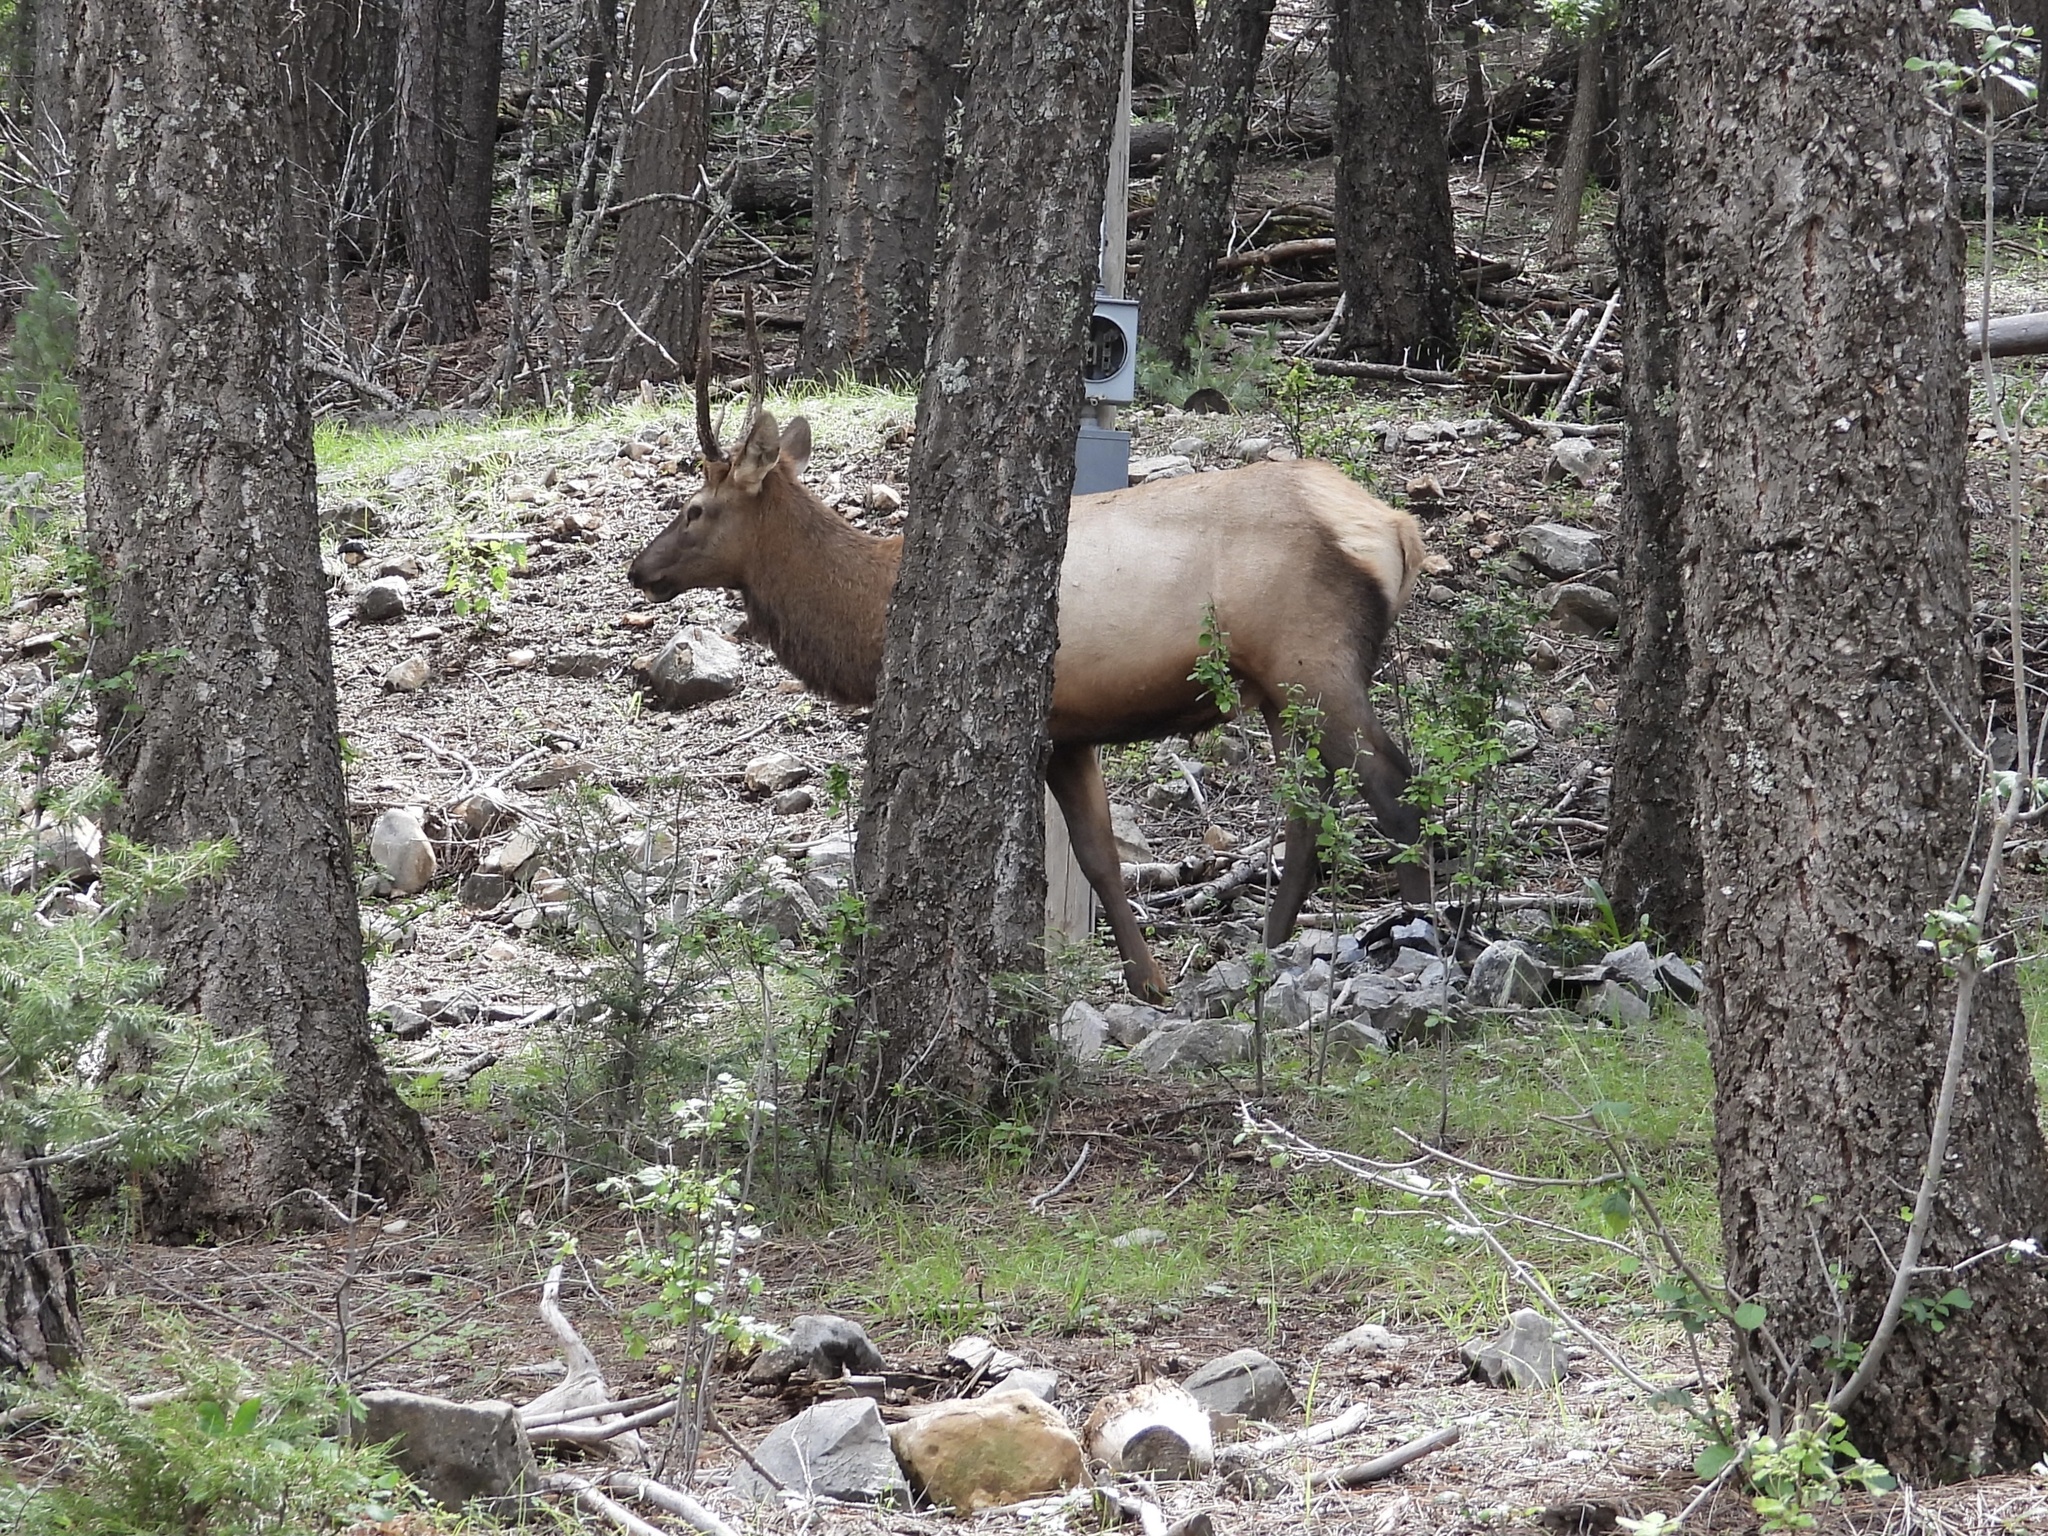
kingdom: Animalia
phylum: Chordata
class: Mammalia
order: Artiodactyla
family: Cervidae
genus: Cervus
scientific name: Cervus elaphus
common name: Red deer
